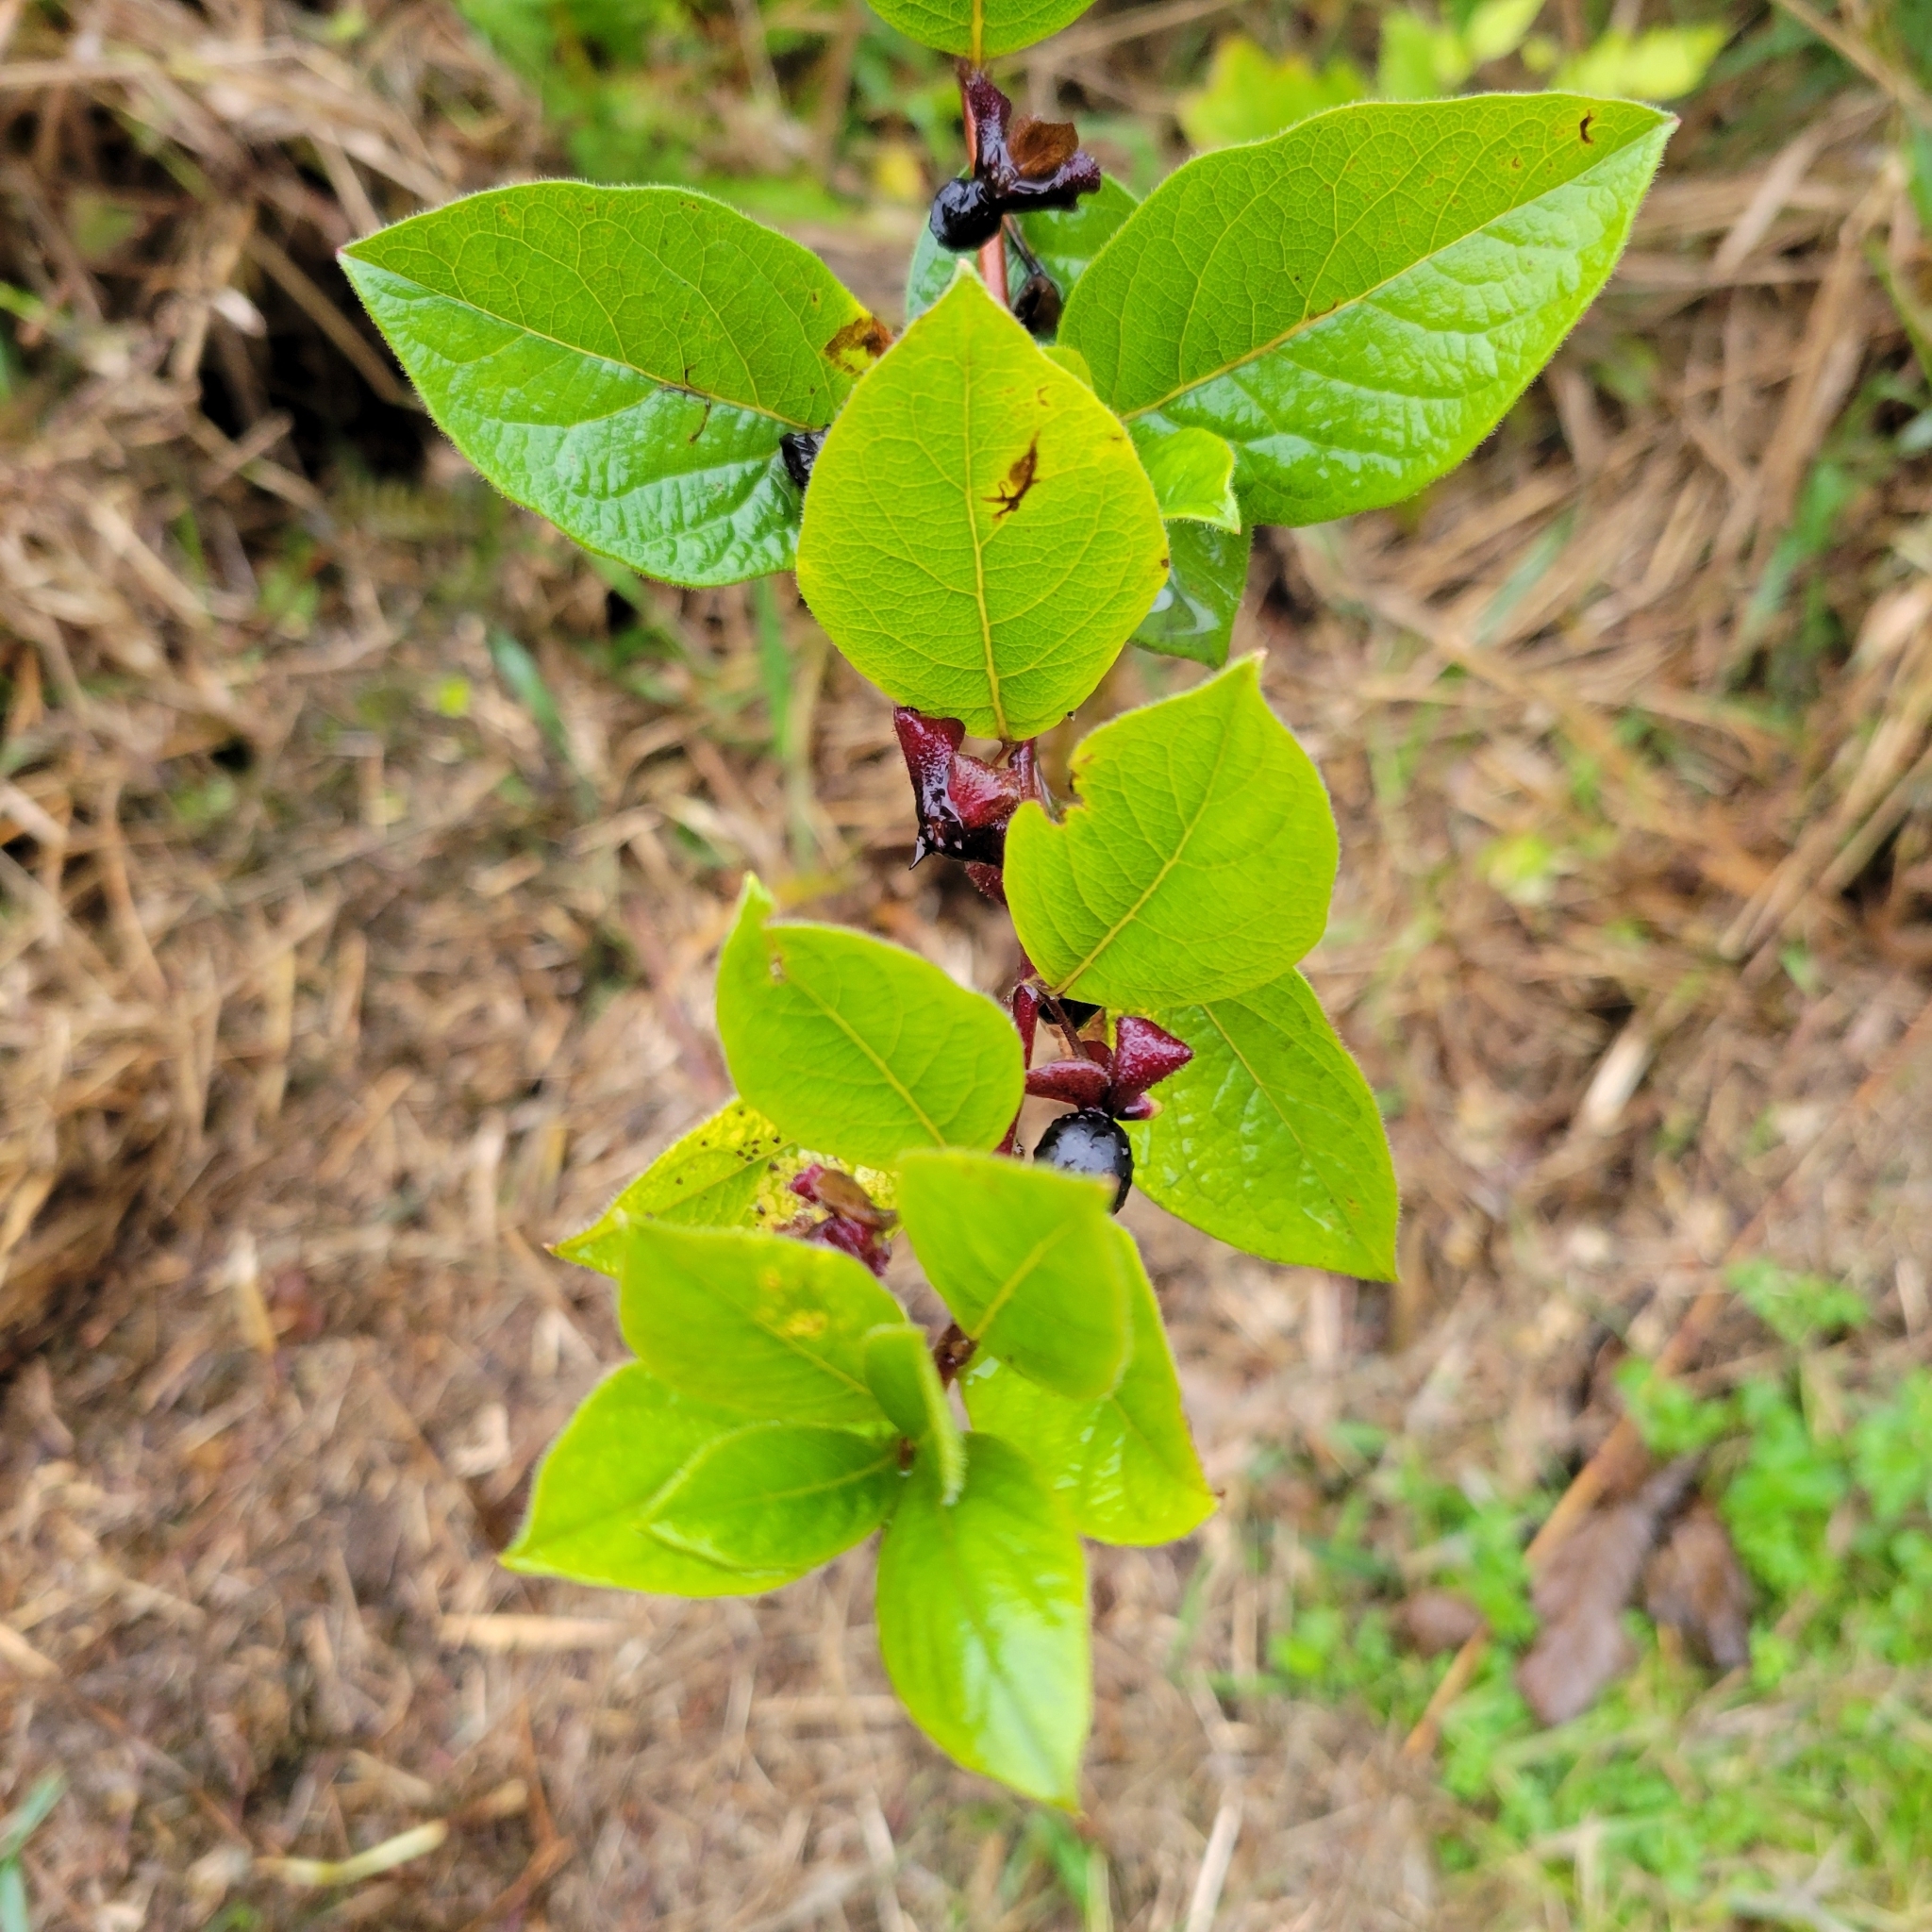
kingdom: Plantae
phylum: Tracheophyta
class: Magnoliopsida
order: Dipsacales
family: Caprifoliaceae
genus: Lonicera
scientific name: Lonicera involucrata
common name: Californian honeysuckle
